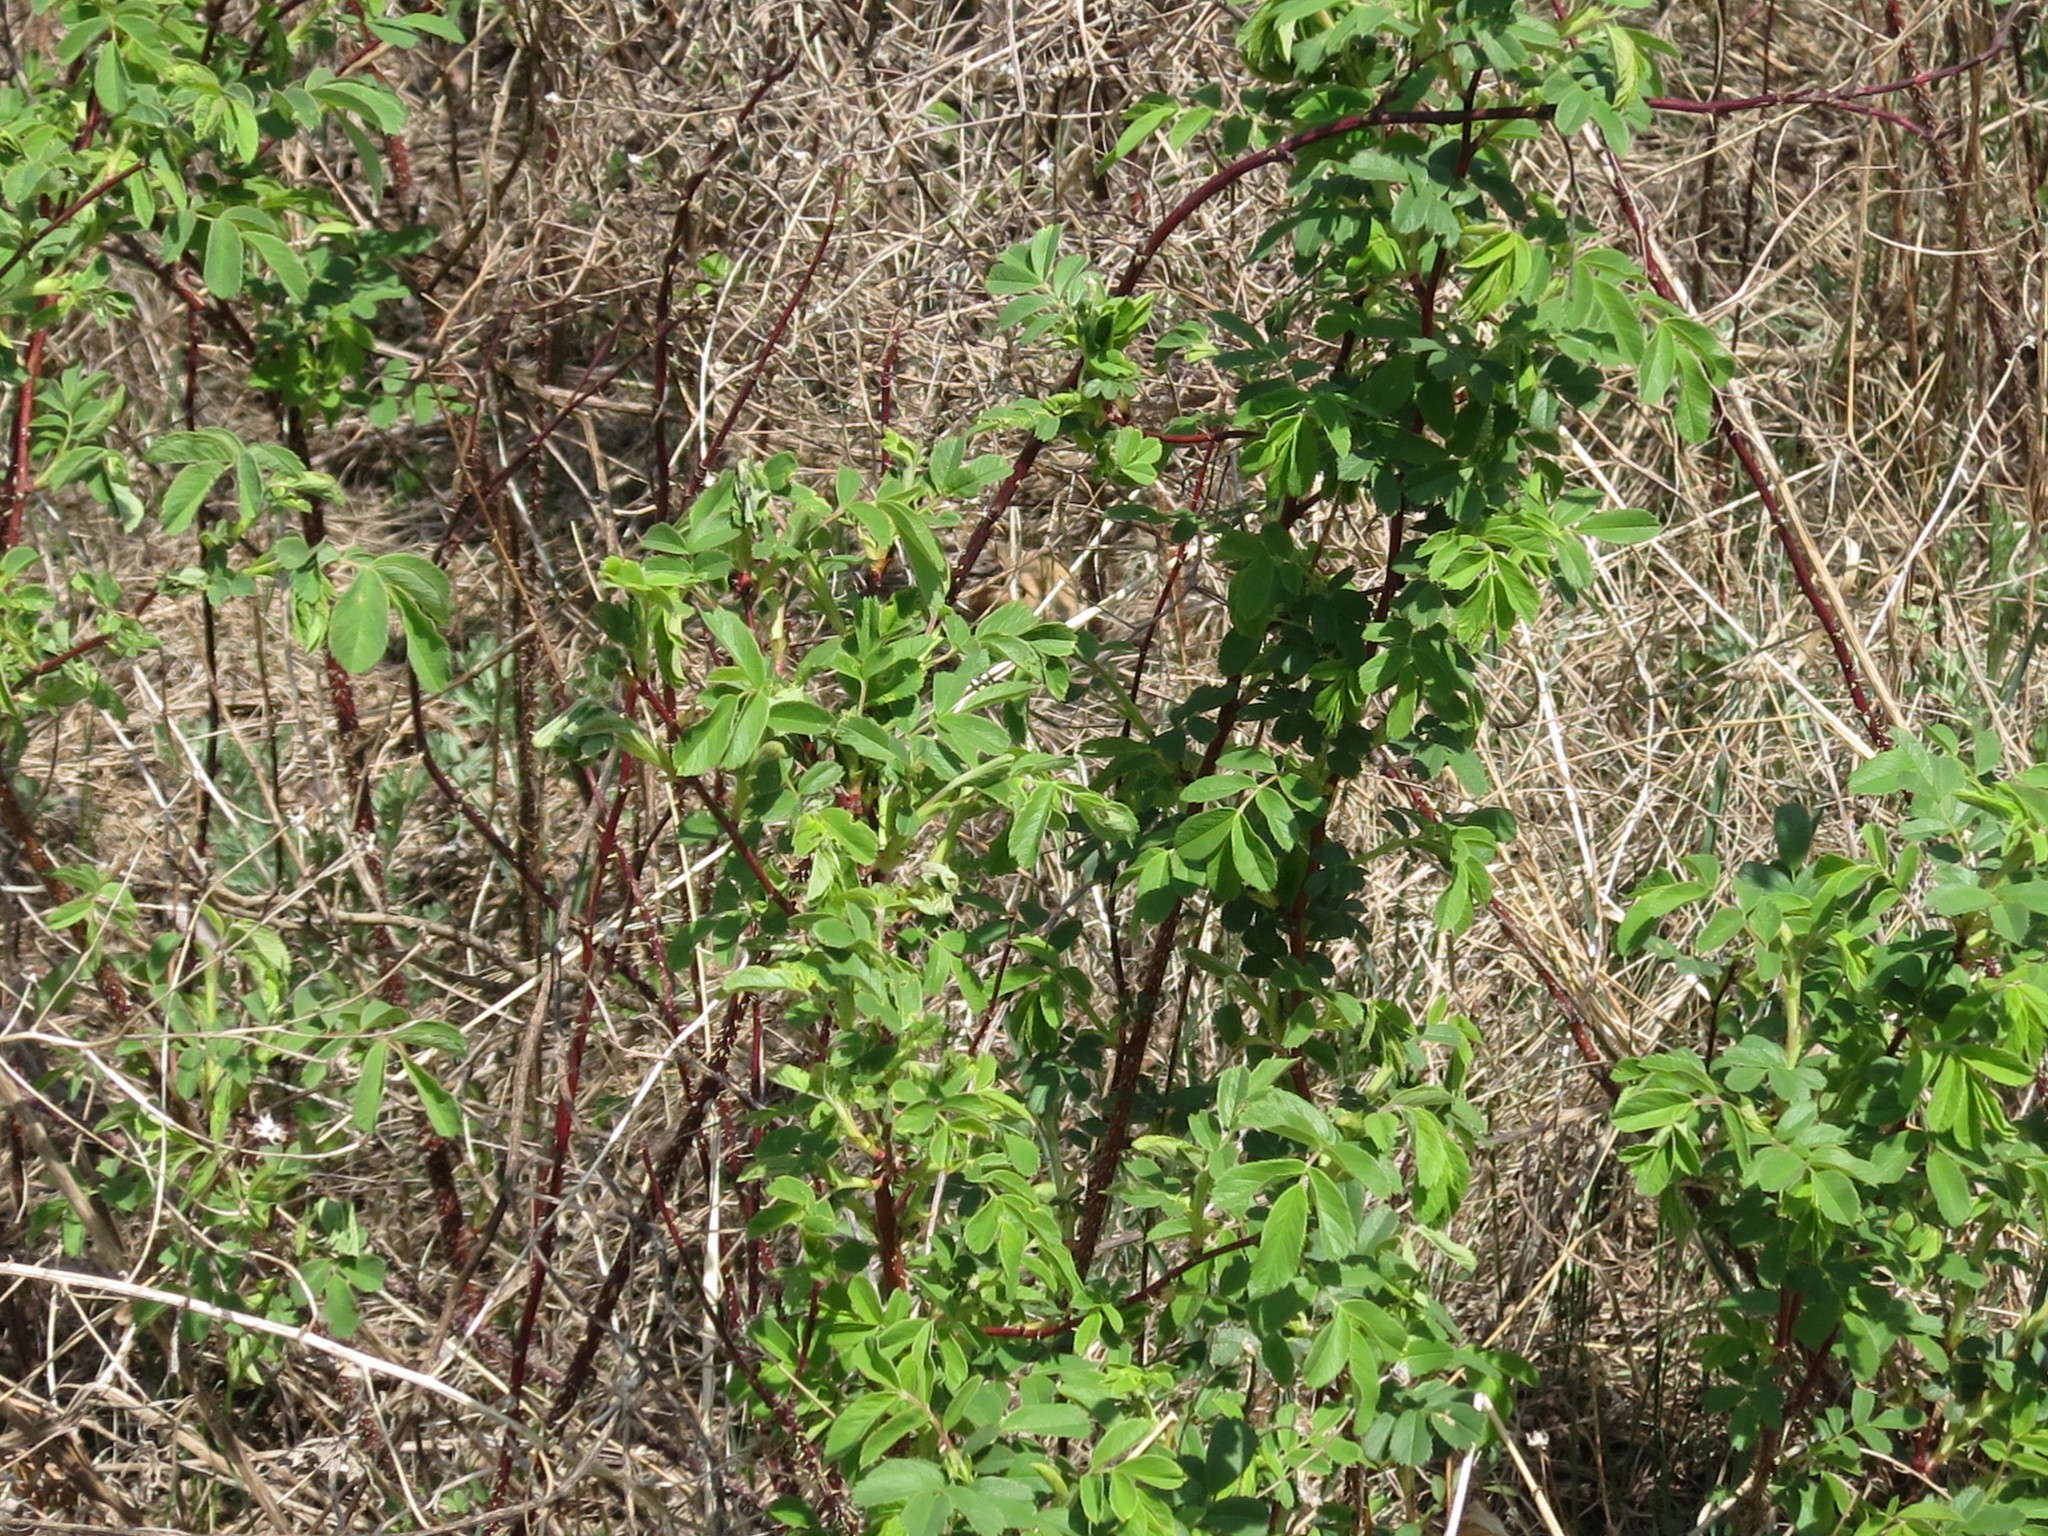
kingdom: Plantae
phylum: Tracheophyta
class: Magnoliopsida
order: Rosales
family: Rosaceae
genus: Rosa
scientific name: Rosa davurica
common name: Amur rose
